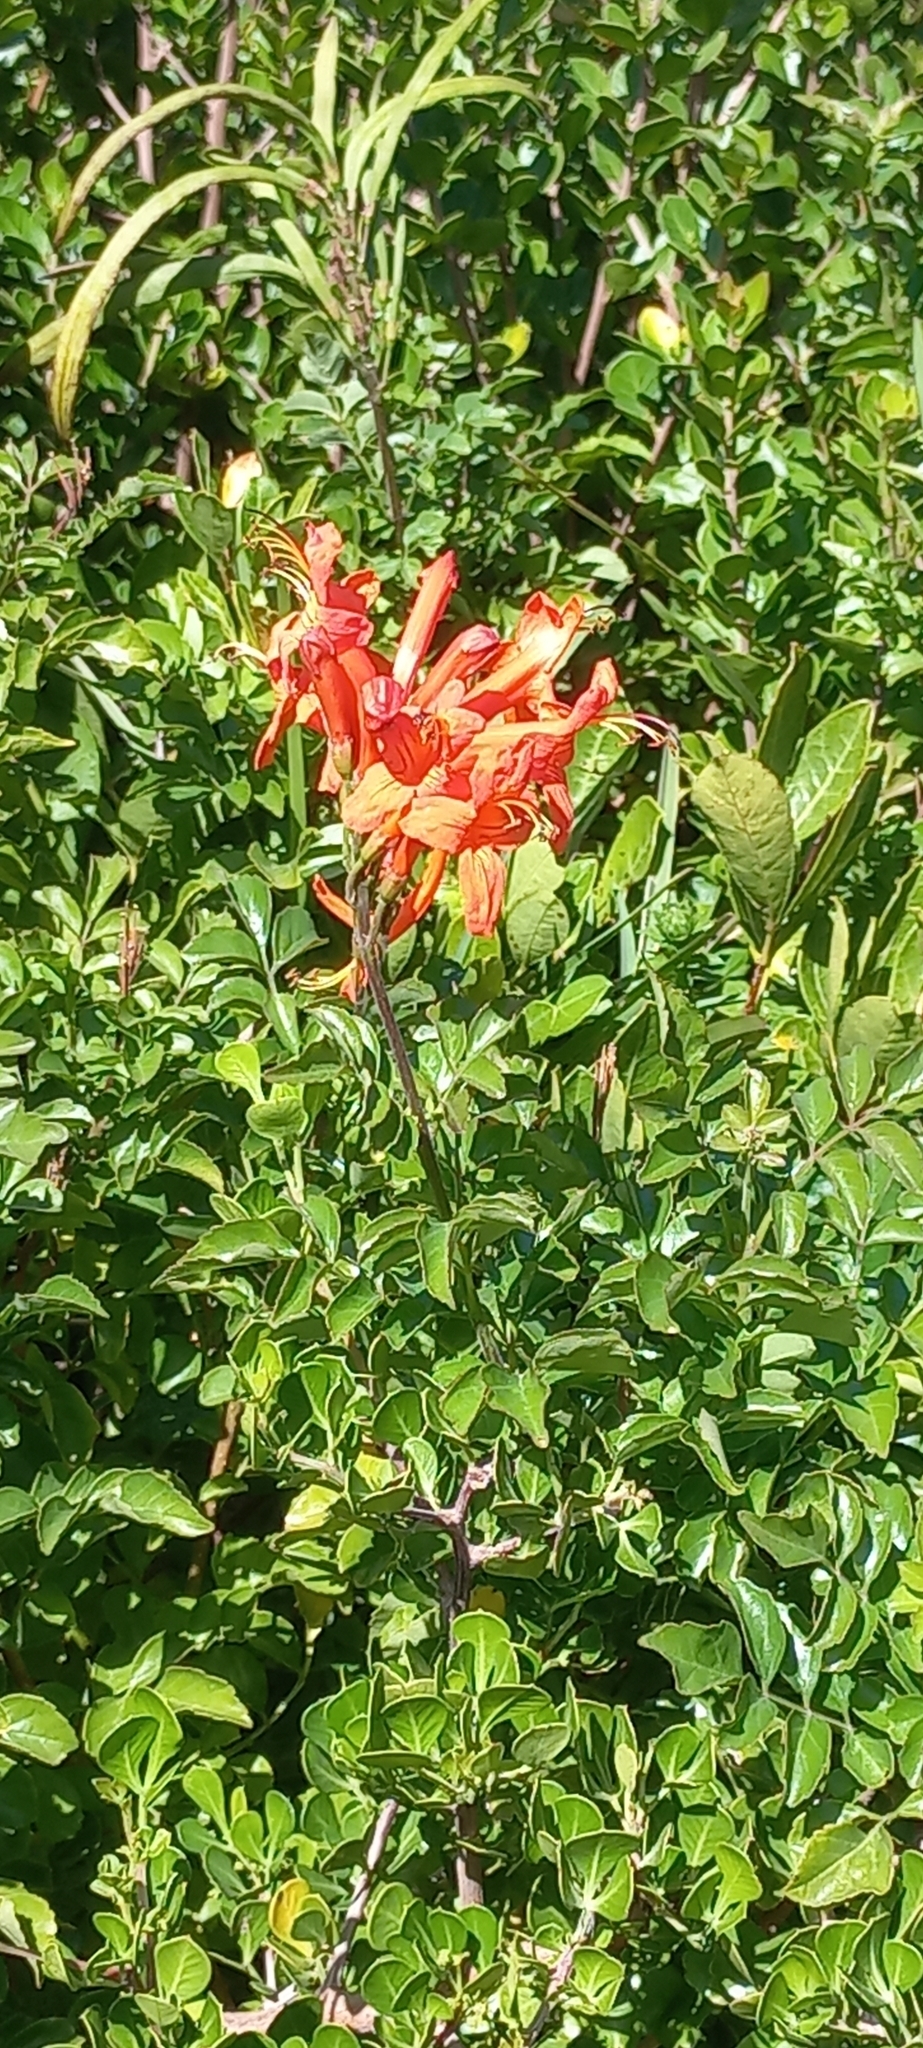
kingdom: Plantae
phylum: Tracheophyta
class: Magnoliopsida
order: Lamiales
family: Bignoniaceae
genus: Tecomaria
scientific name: Tecomaria capensis
